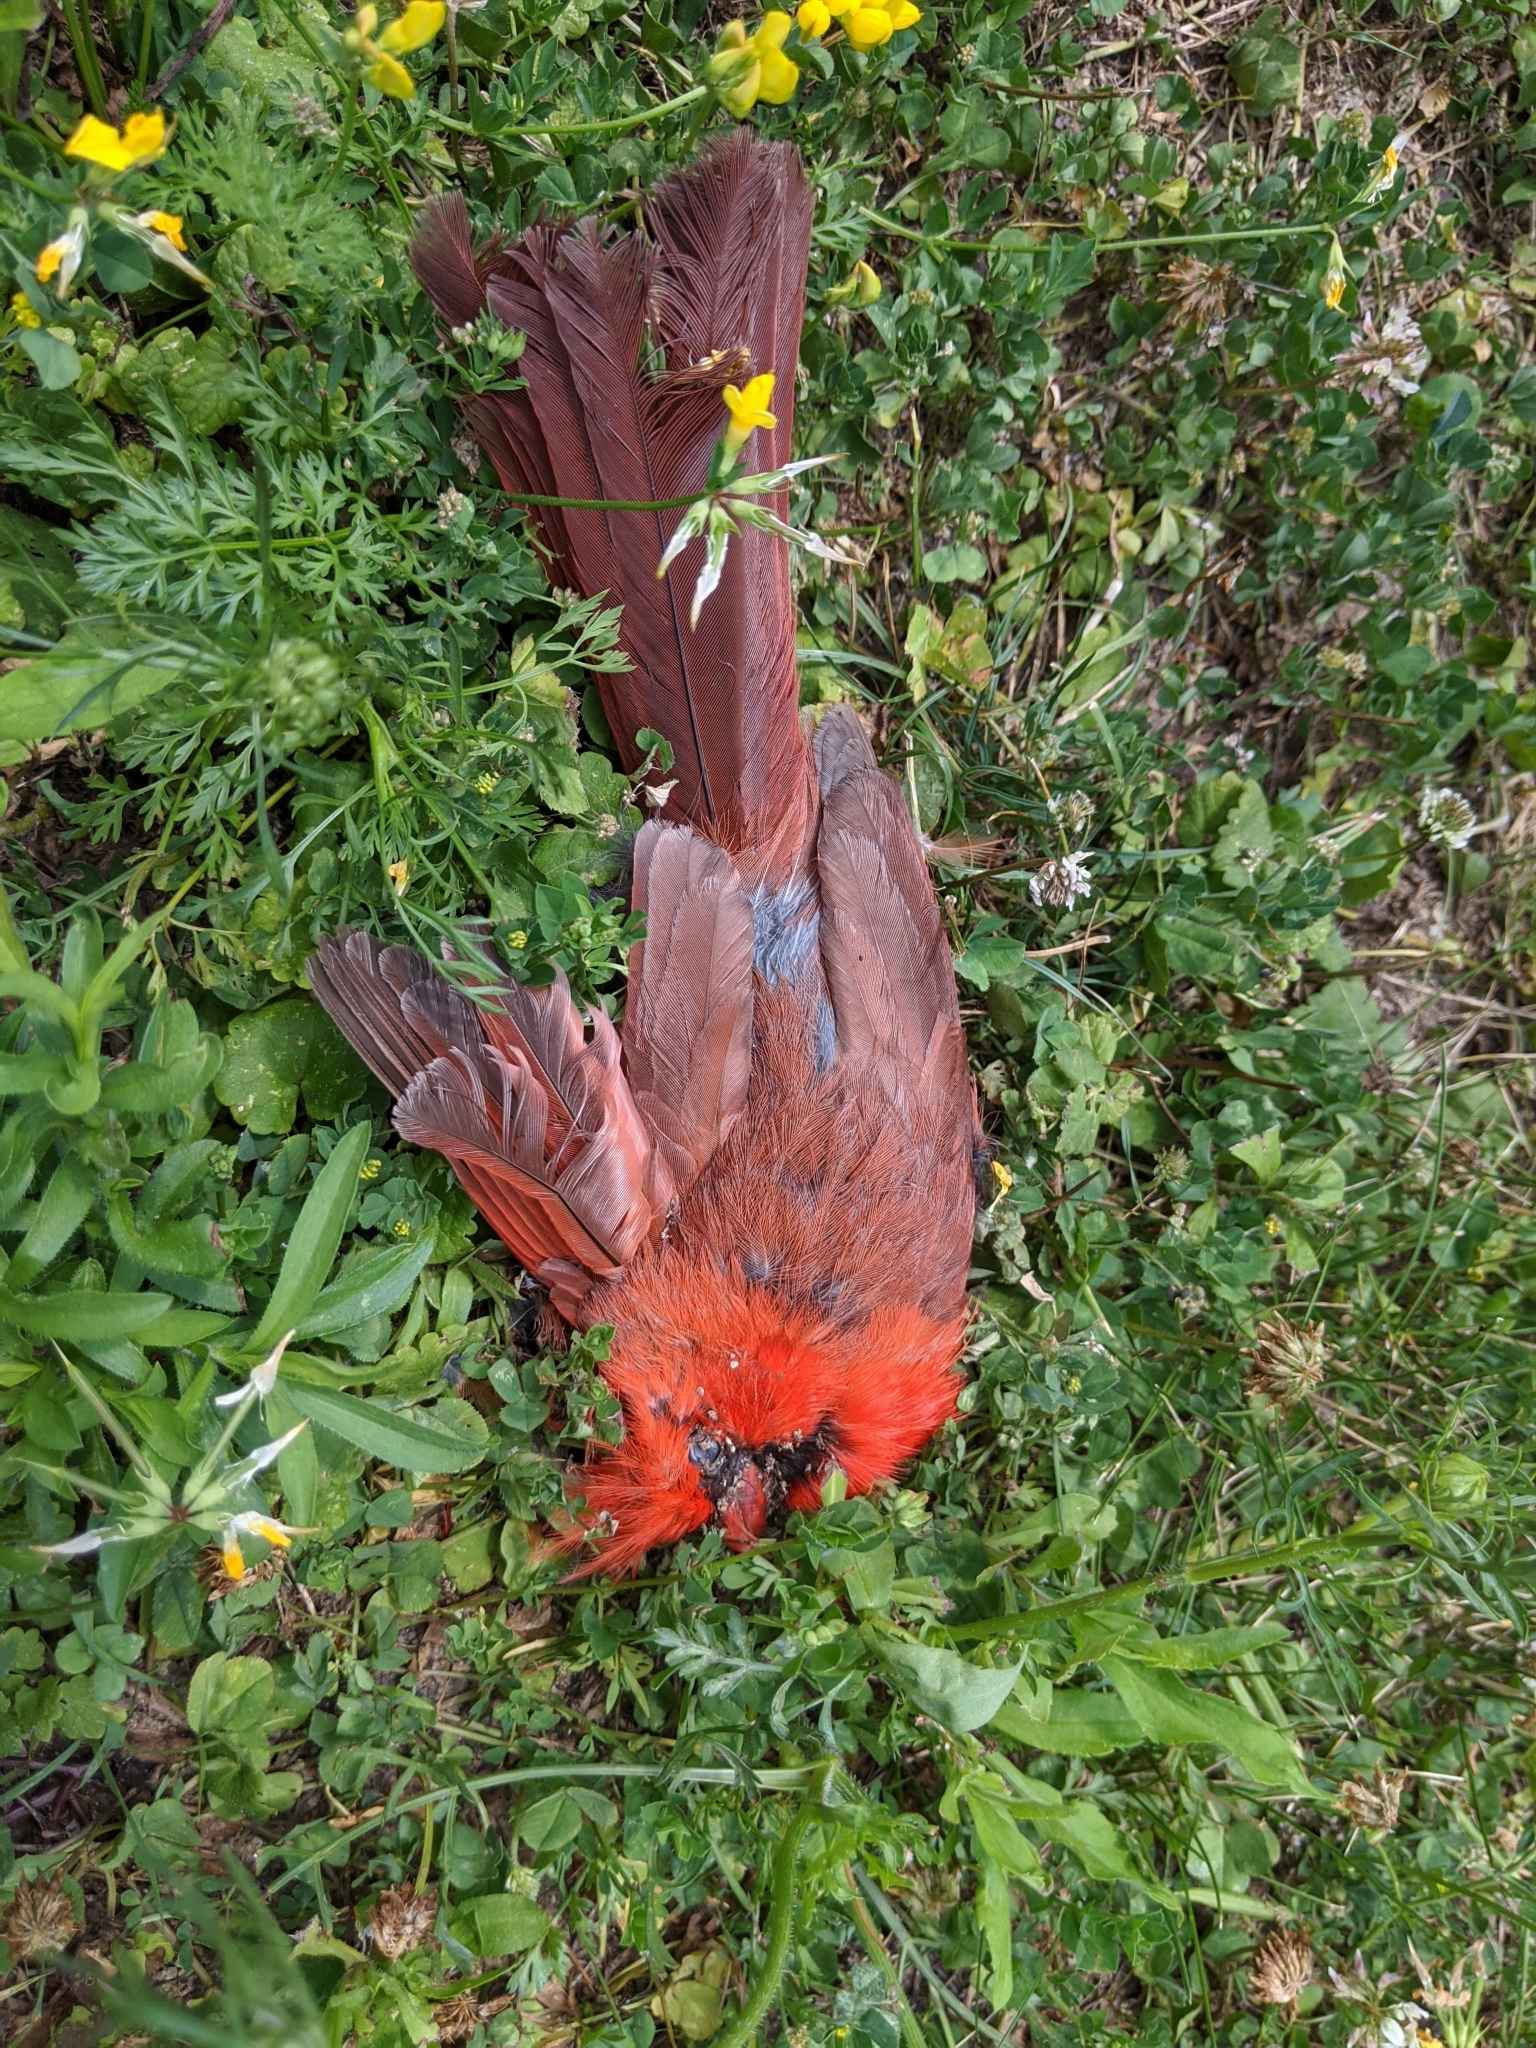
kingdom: Animalia
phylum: Chordata
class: Aves
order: Passeriformes
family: Cardinalidae
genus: Cardinalis
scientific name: Cardinalis cardinalis
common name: Northern cardinal
